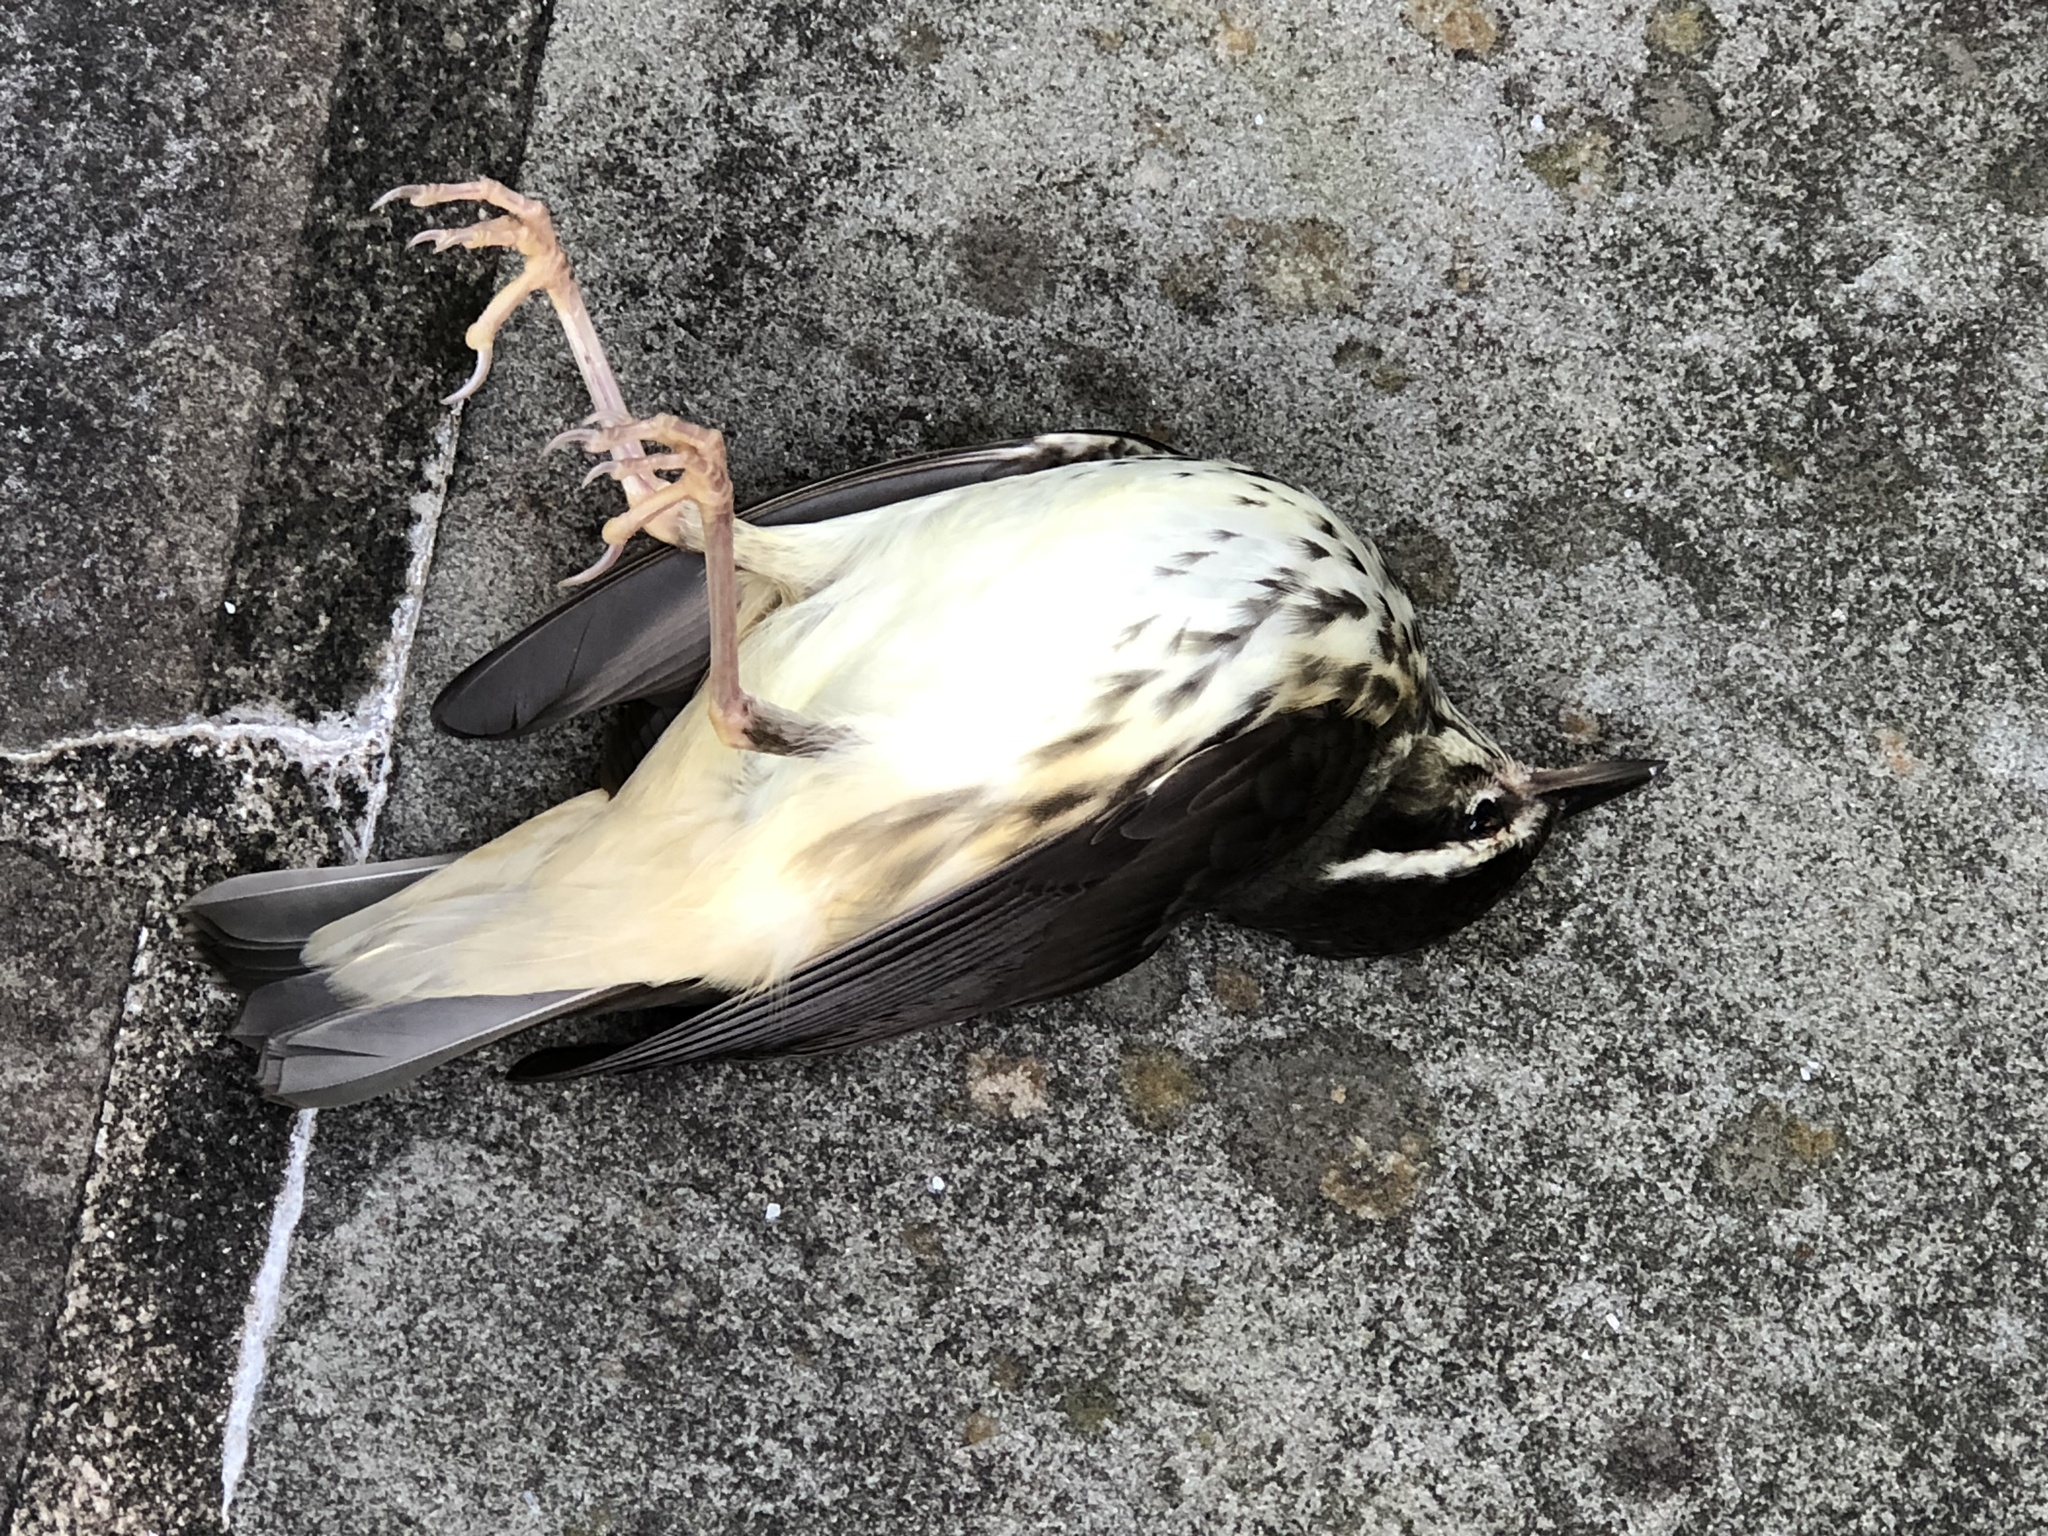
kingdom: Animalia
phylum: Chordata
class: Aves
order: Passeriformes
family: Parulidae
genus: Parkesia
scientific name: Parkesia motacilla
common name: Louisiana waterthrush
